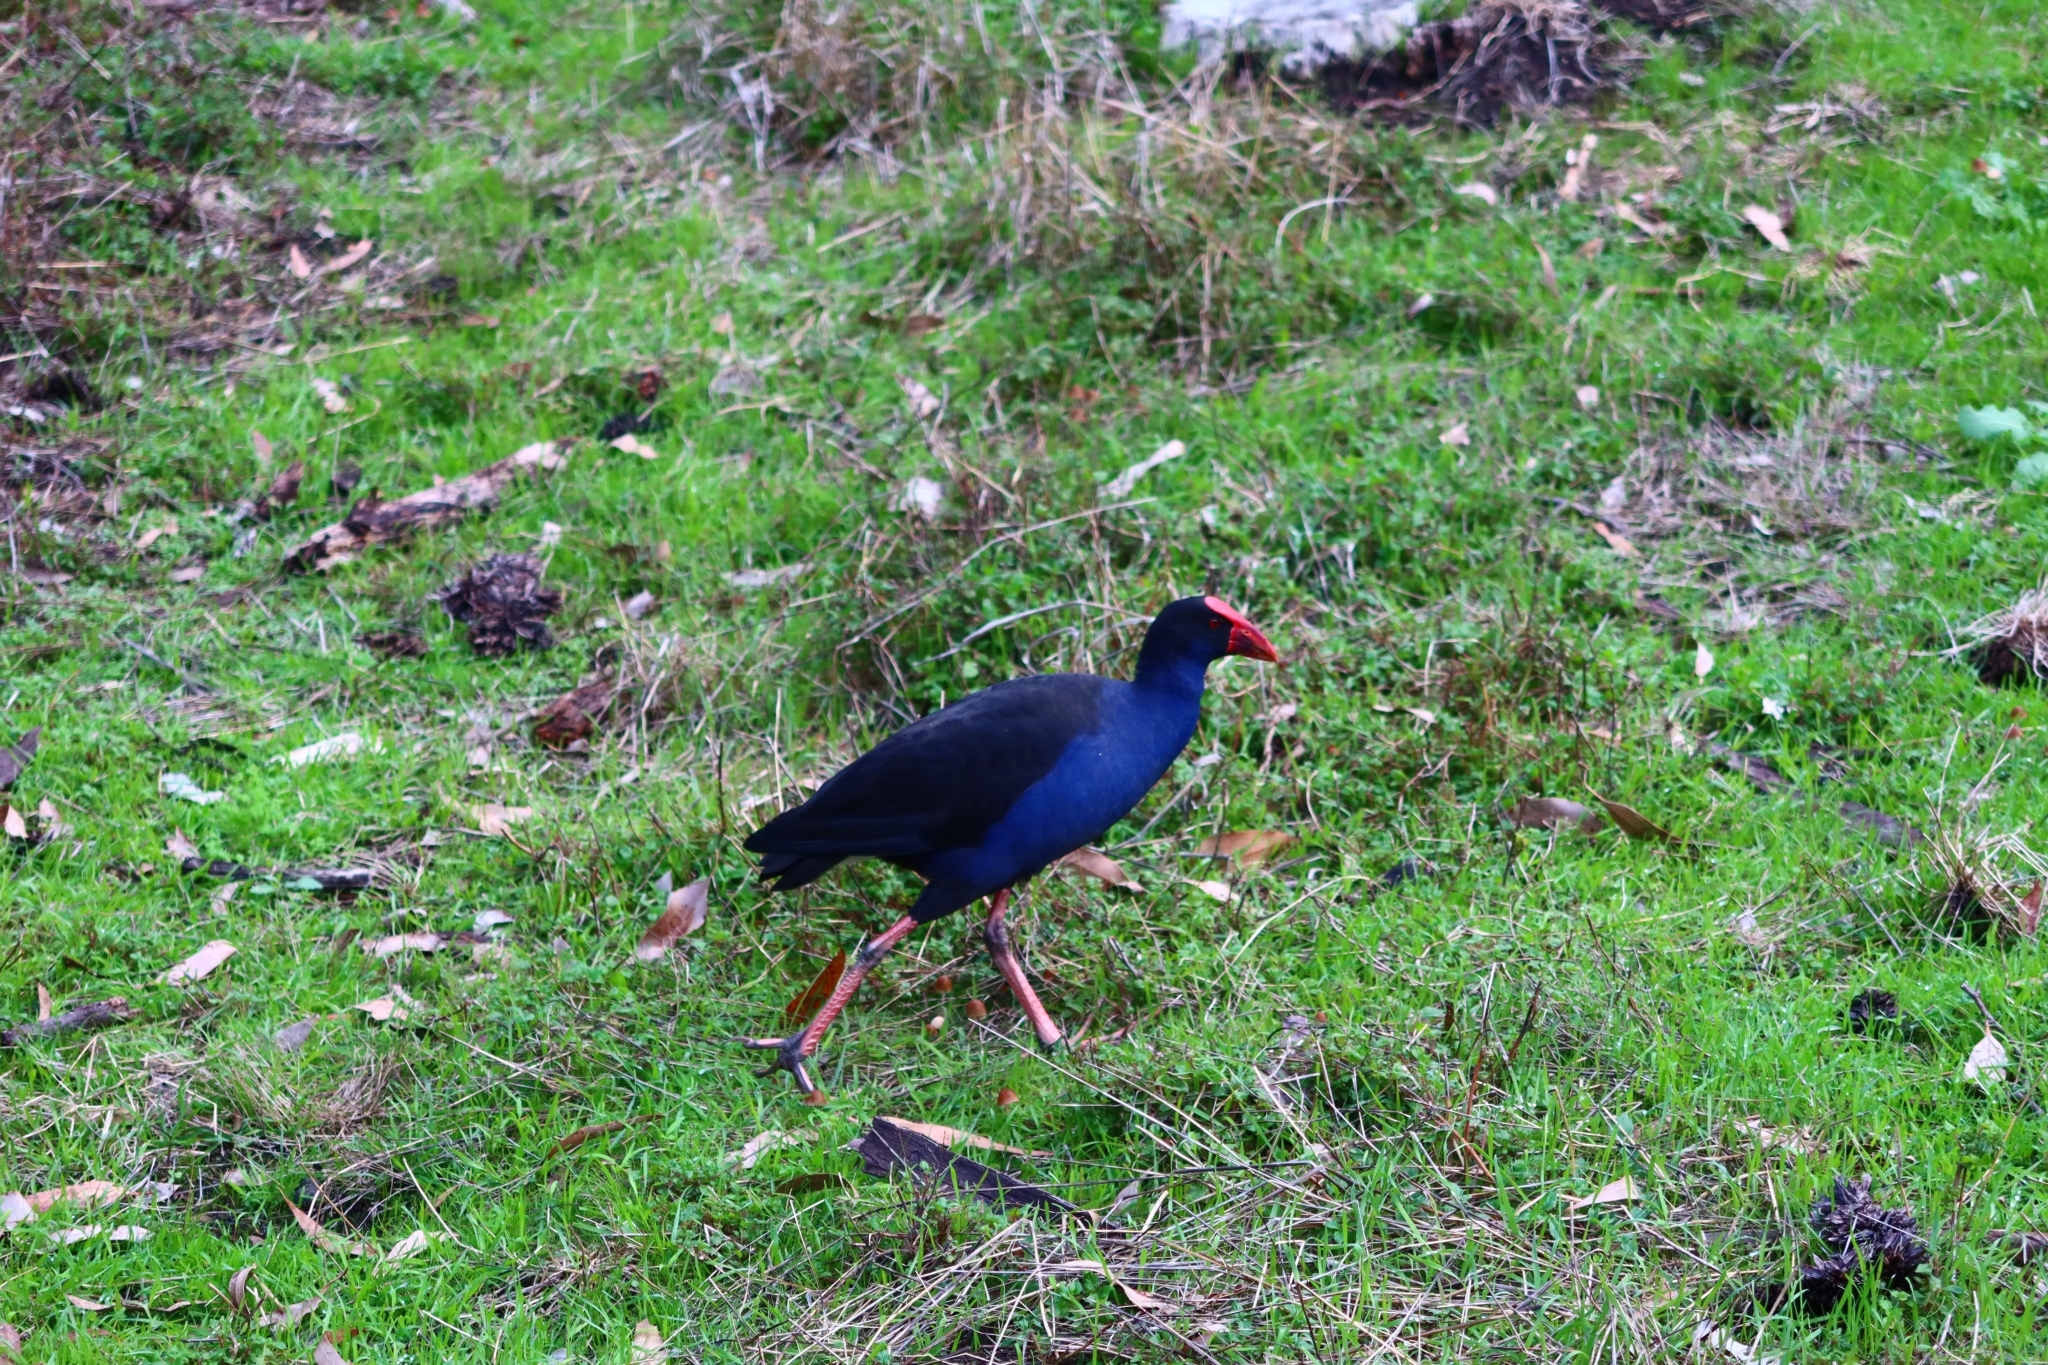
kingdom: Animalia
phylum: Chordata
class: Aves
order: Gruiformes
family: Rallidae
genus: Porphyrio
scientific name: Porphyrio melanotus
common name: Australasian swamphen
